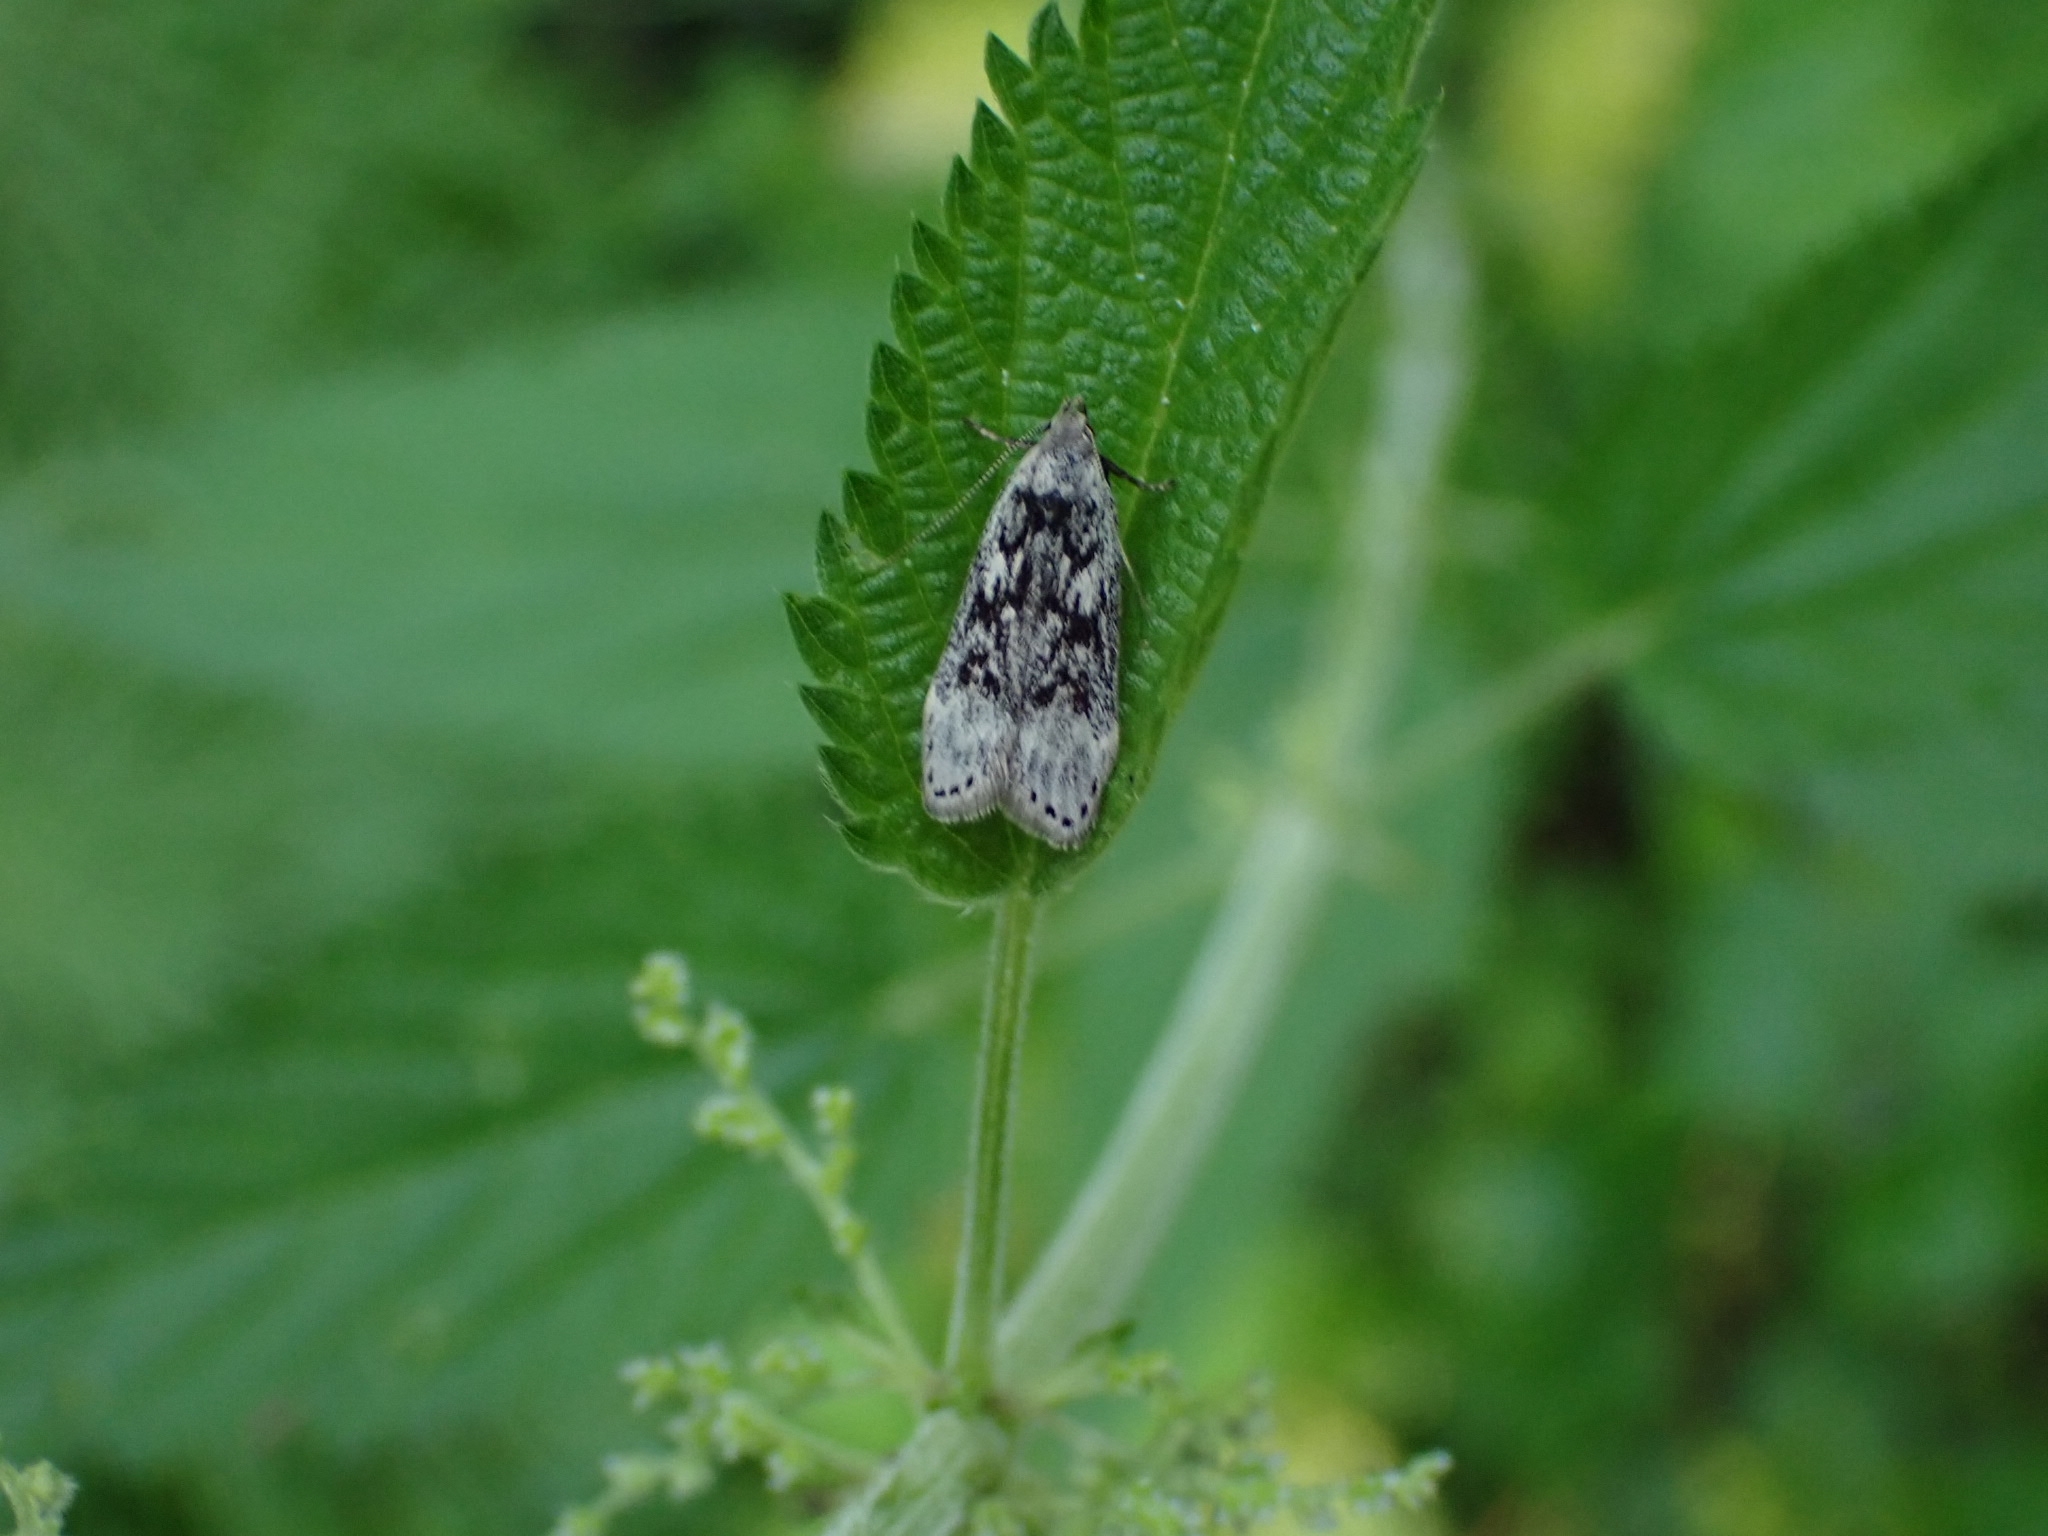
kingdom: Animalia
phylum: Arthropoda
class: Insecta
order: Lepidoptera
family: Gelechiidae
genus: Anacampsis
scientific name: Anacampsis blattariella
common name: Birch sober
